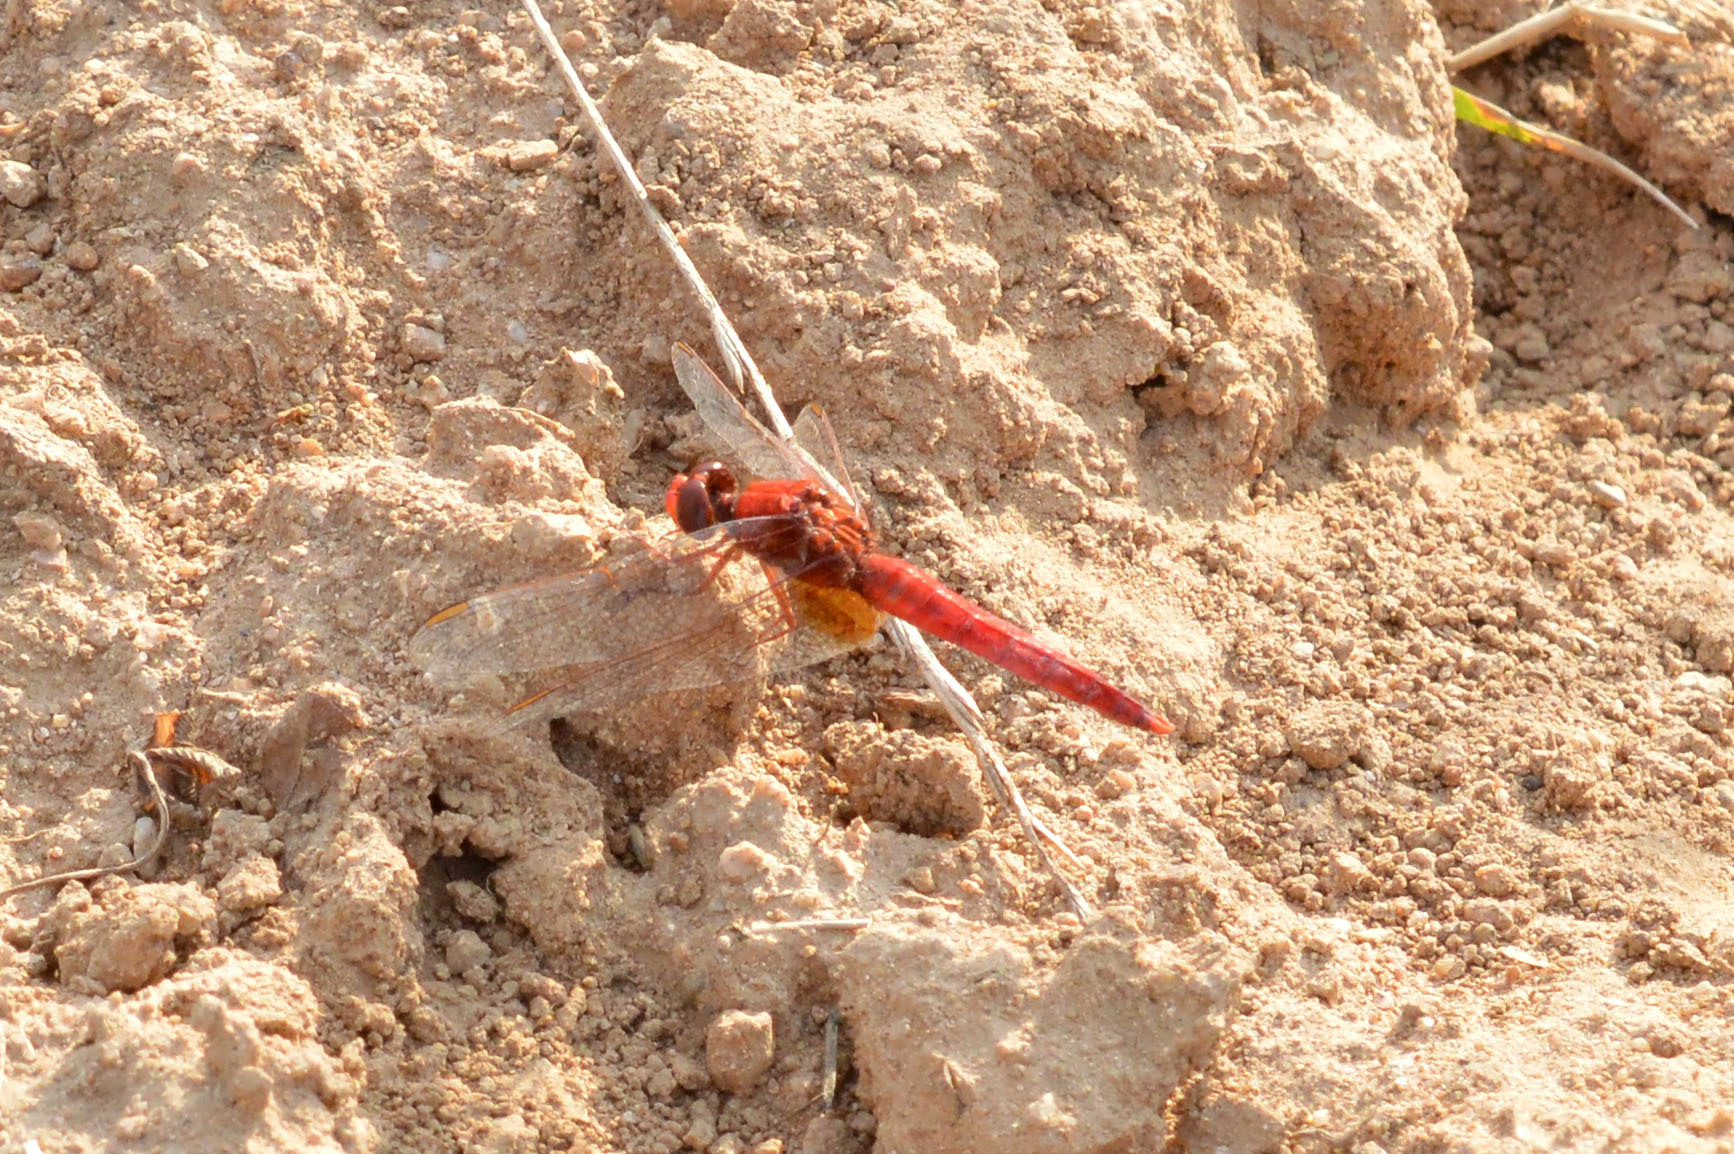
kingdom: Animalia
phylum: Arthropoda
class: Insecta
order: Odonata
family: Libellulidae
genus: Crocothemis
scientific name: Crocothemis erythraea
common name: Scarlet dragonfly
